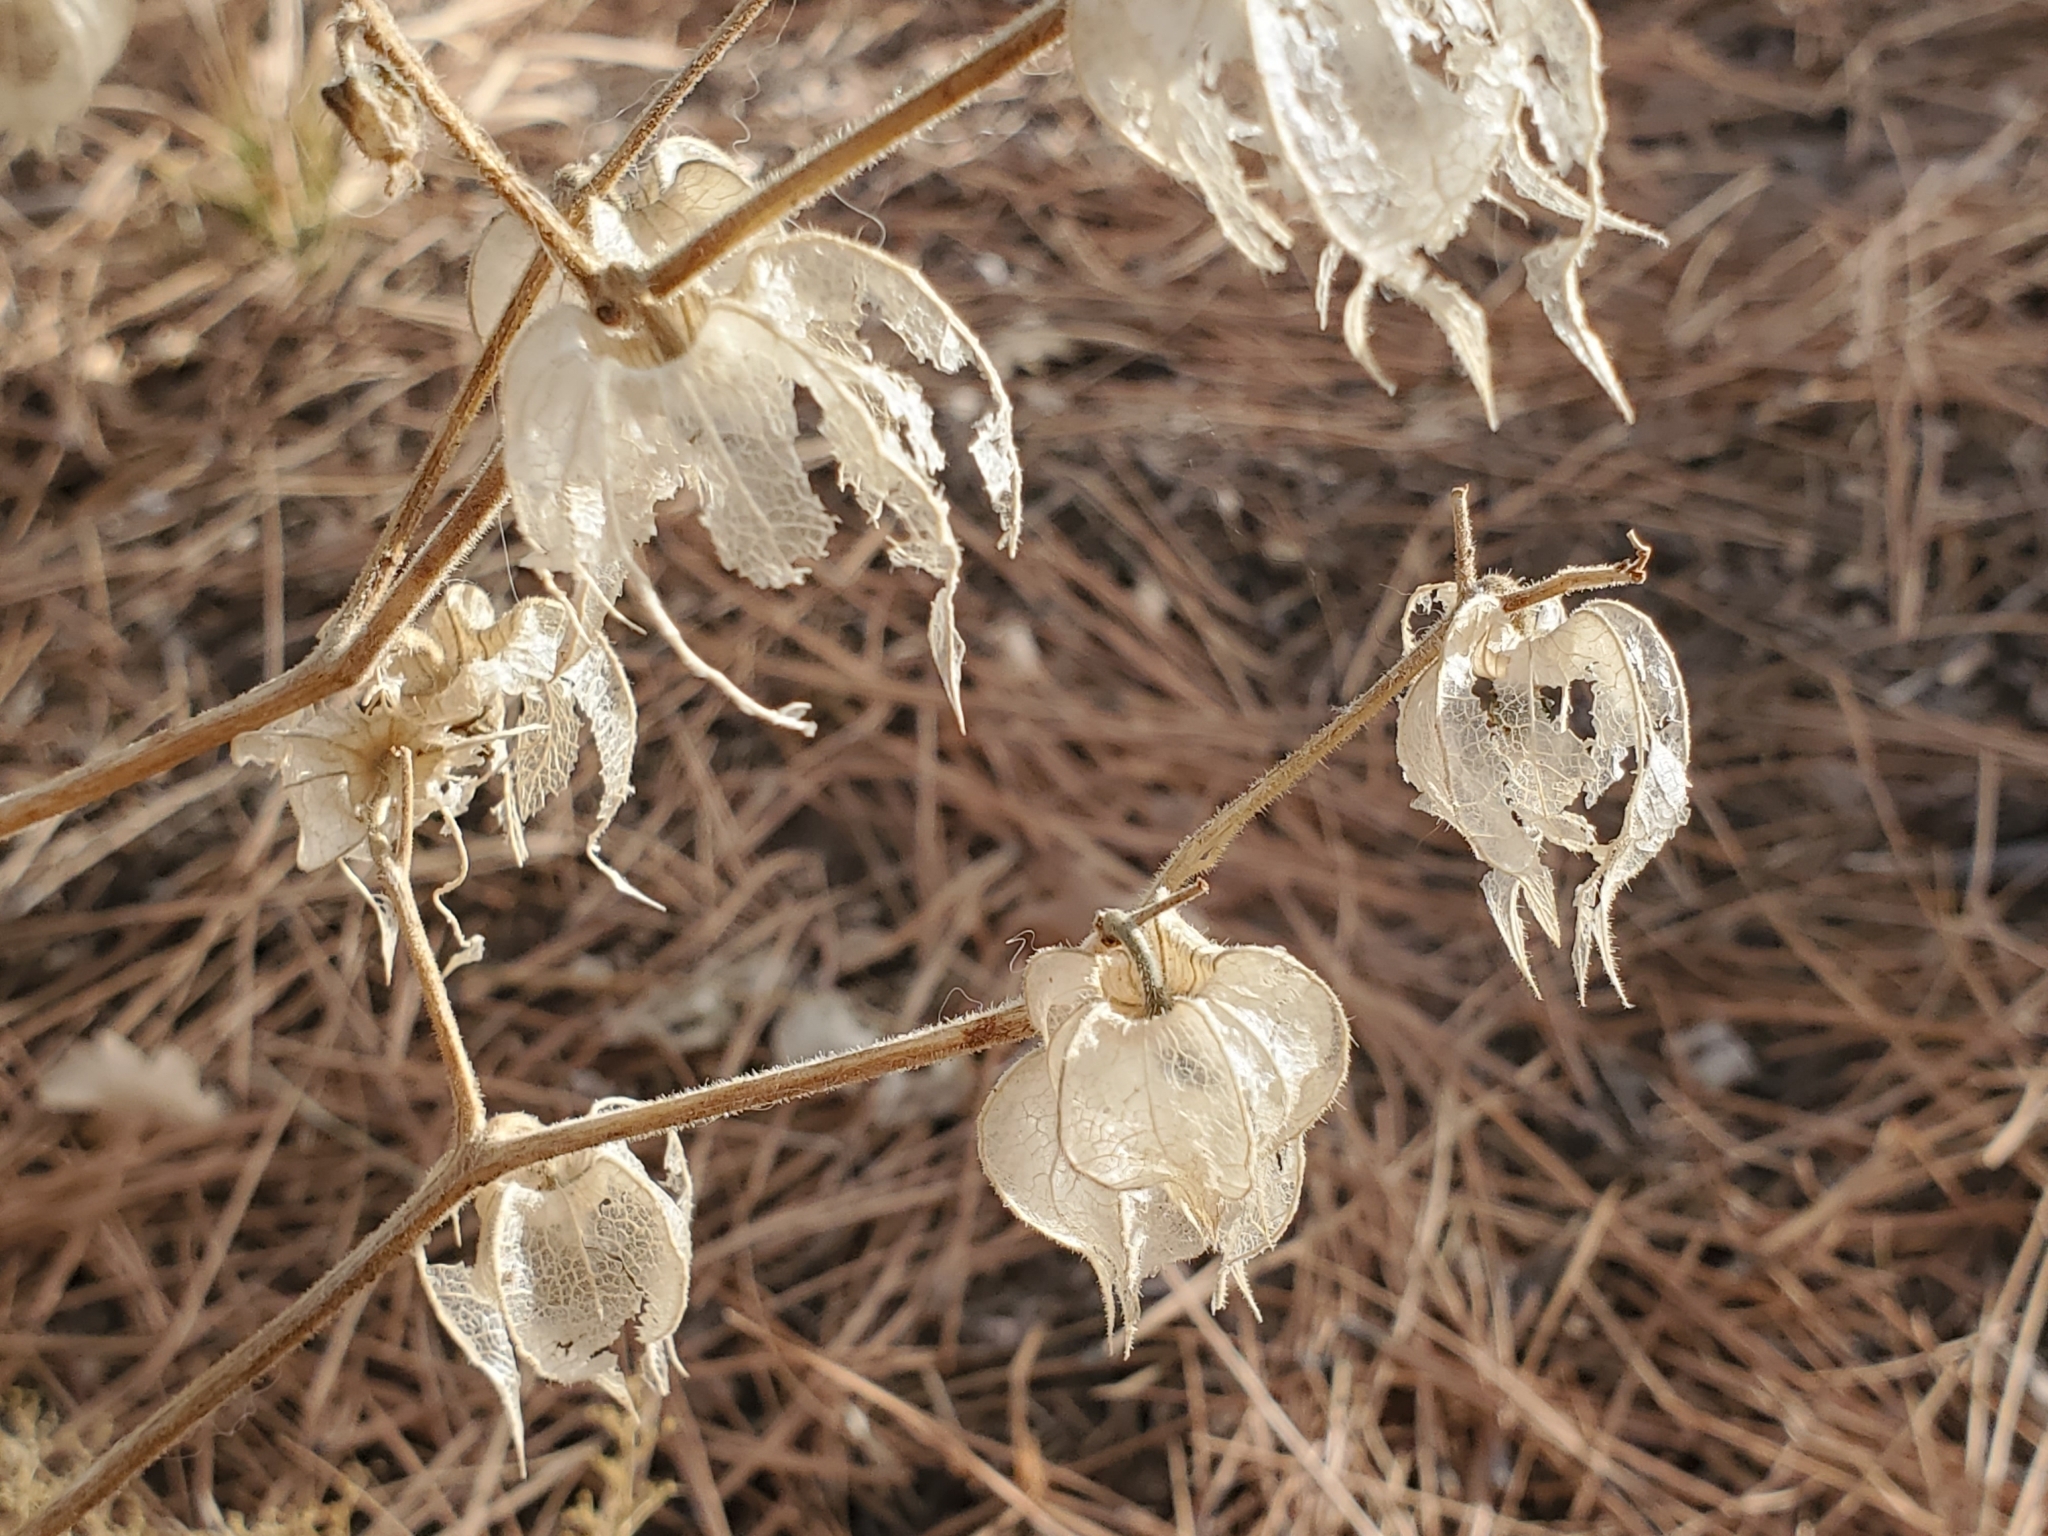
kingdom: Plantae
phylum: Tracheophyta
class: Magnoliopsida
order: Solanales
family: Solanaceae
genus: Physalis
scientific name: Physalis neomexicana
